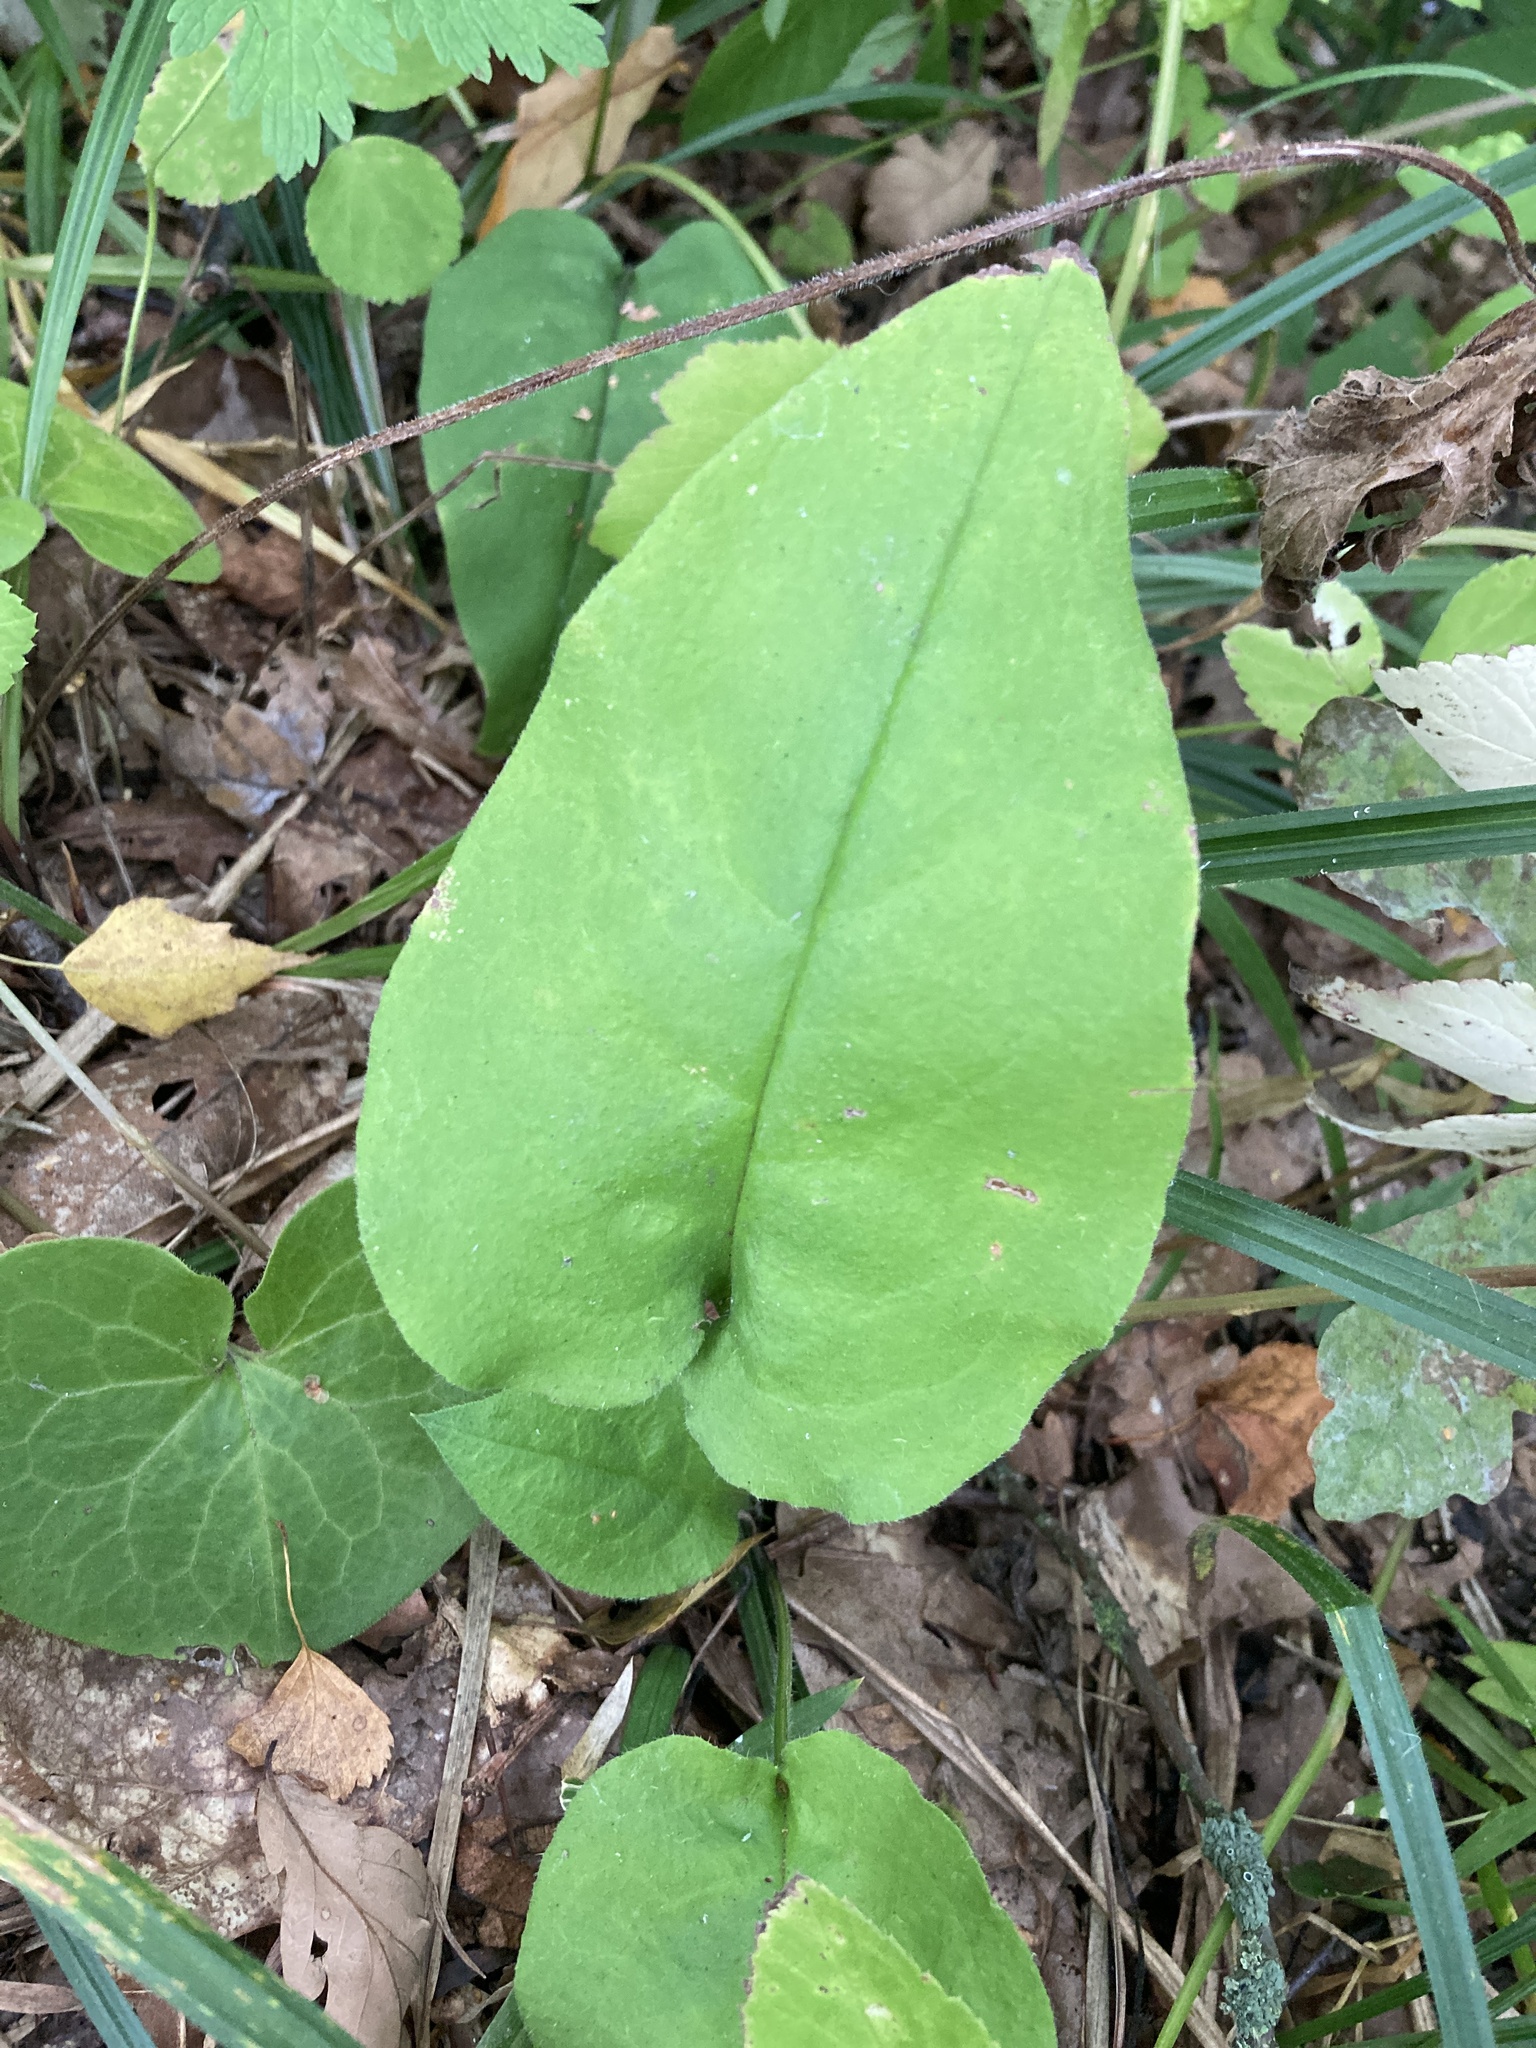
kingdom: Plantae
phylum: Tracheophyta
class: Magnoliopsida
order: Boraginales
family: Boraginaceae
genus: Pulmonaria
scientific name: Pulmonaria obscura
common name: Suffolk lungwort
